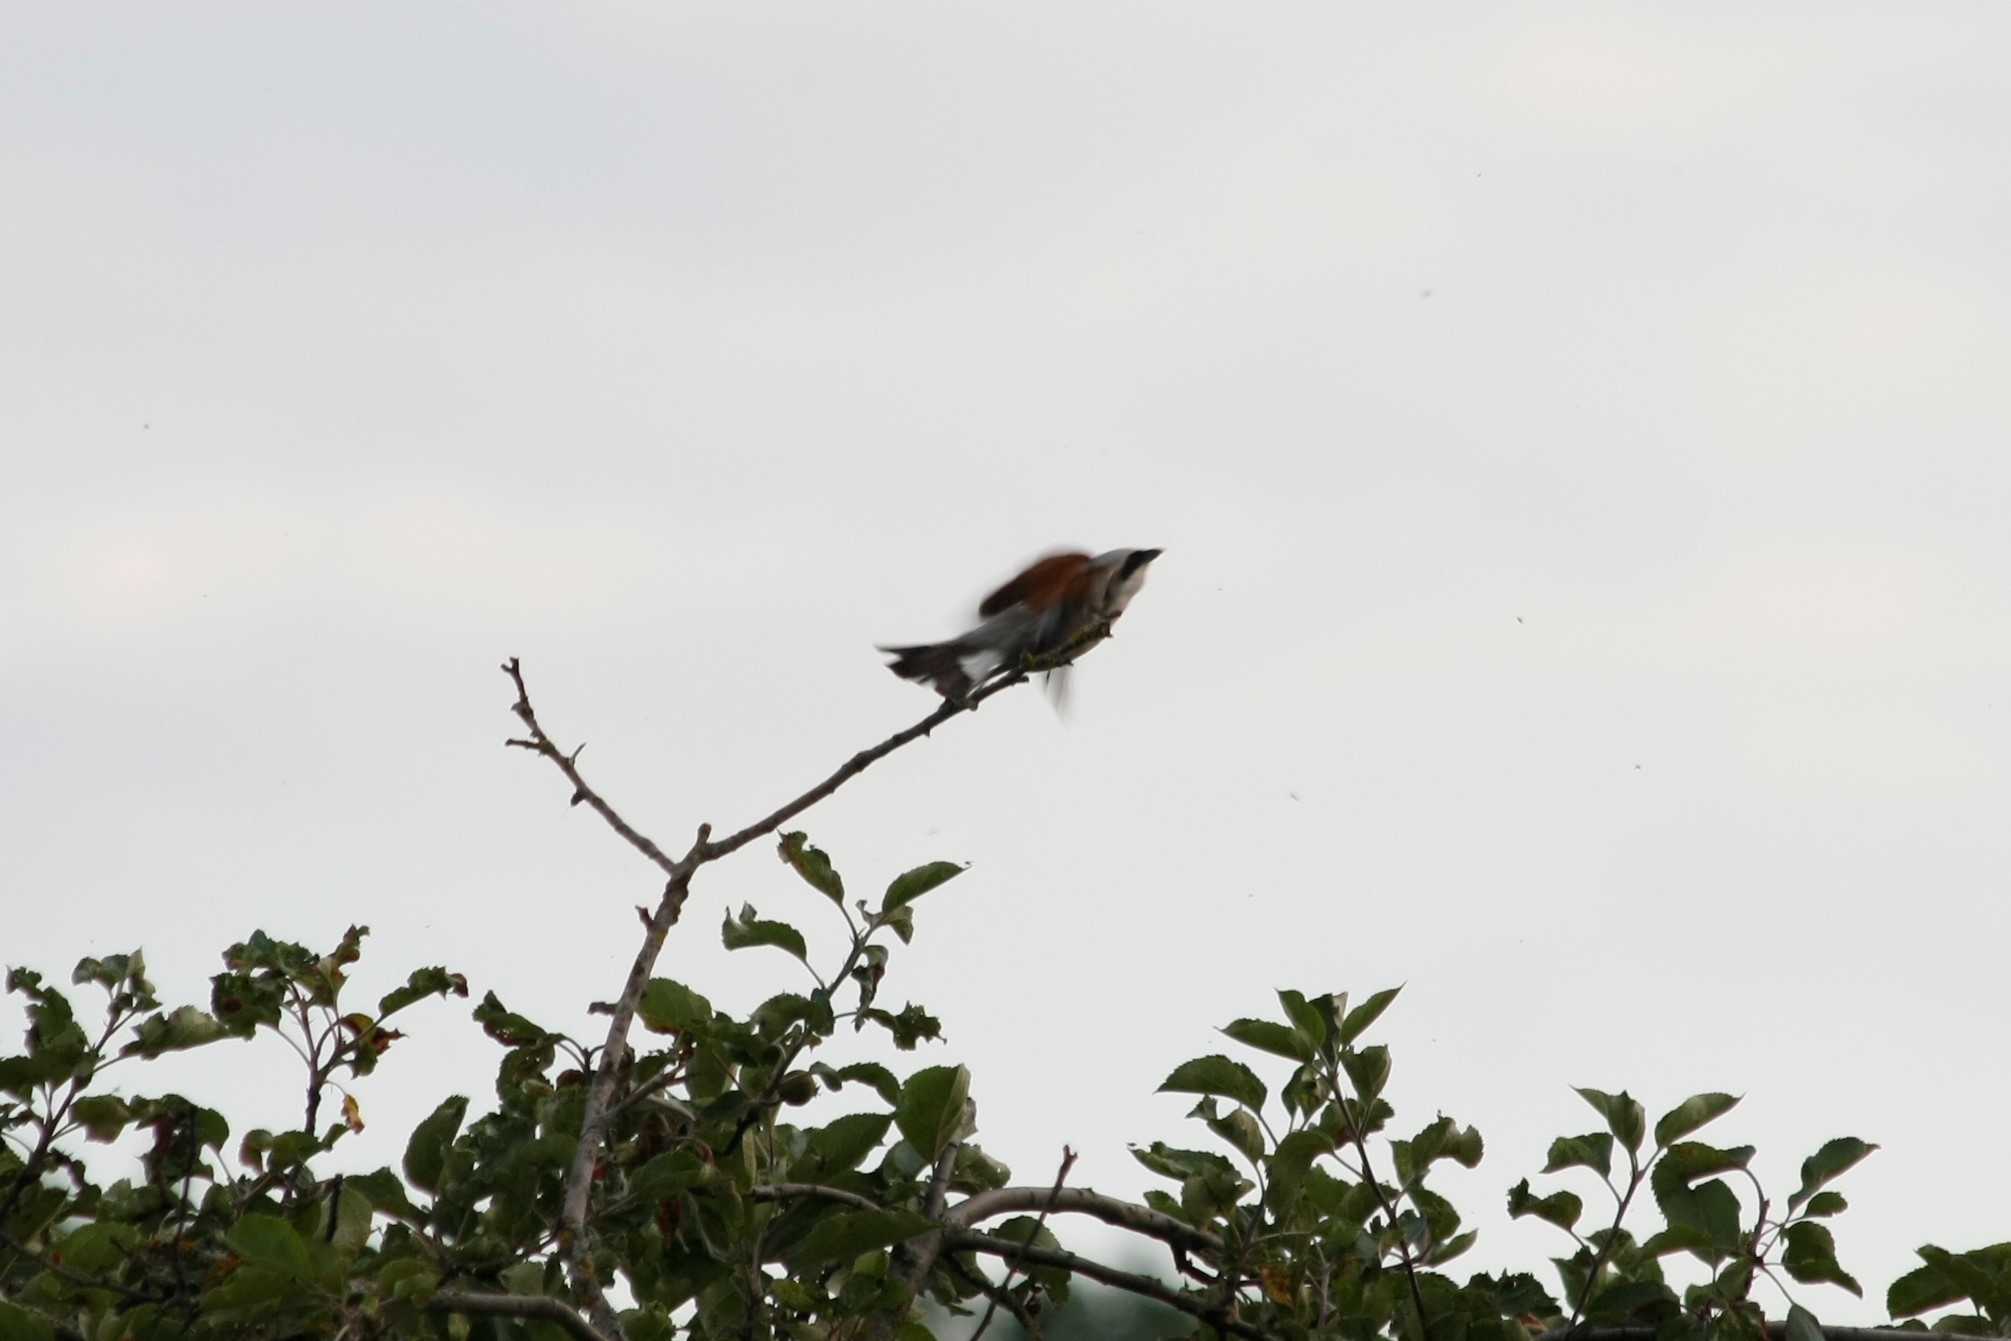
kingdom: Animalia
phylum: Chordata
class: Aves
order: Passeriformes
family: Laniidae
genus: Lanius
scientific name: Lanius collurio
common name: Red-backed shrike
